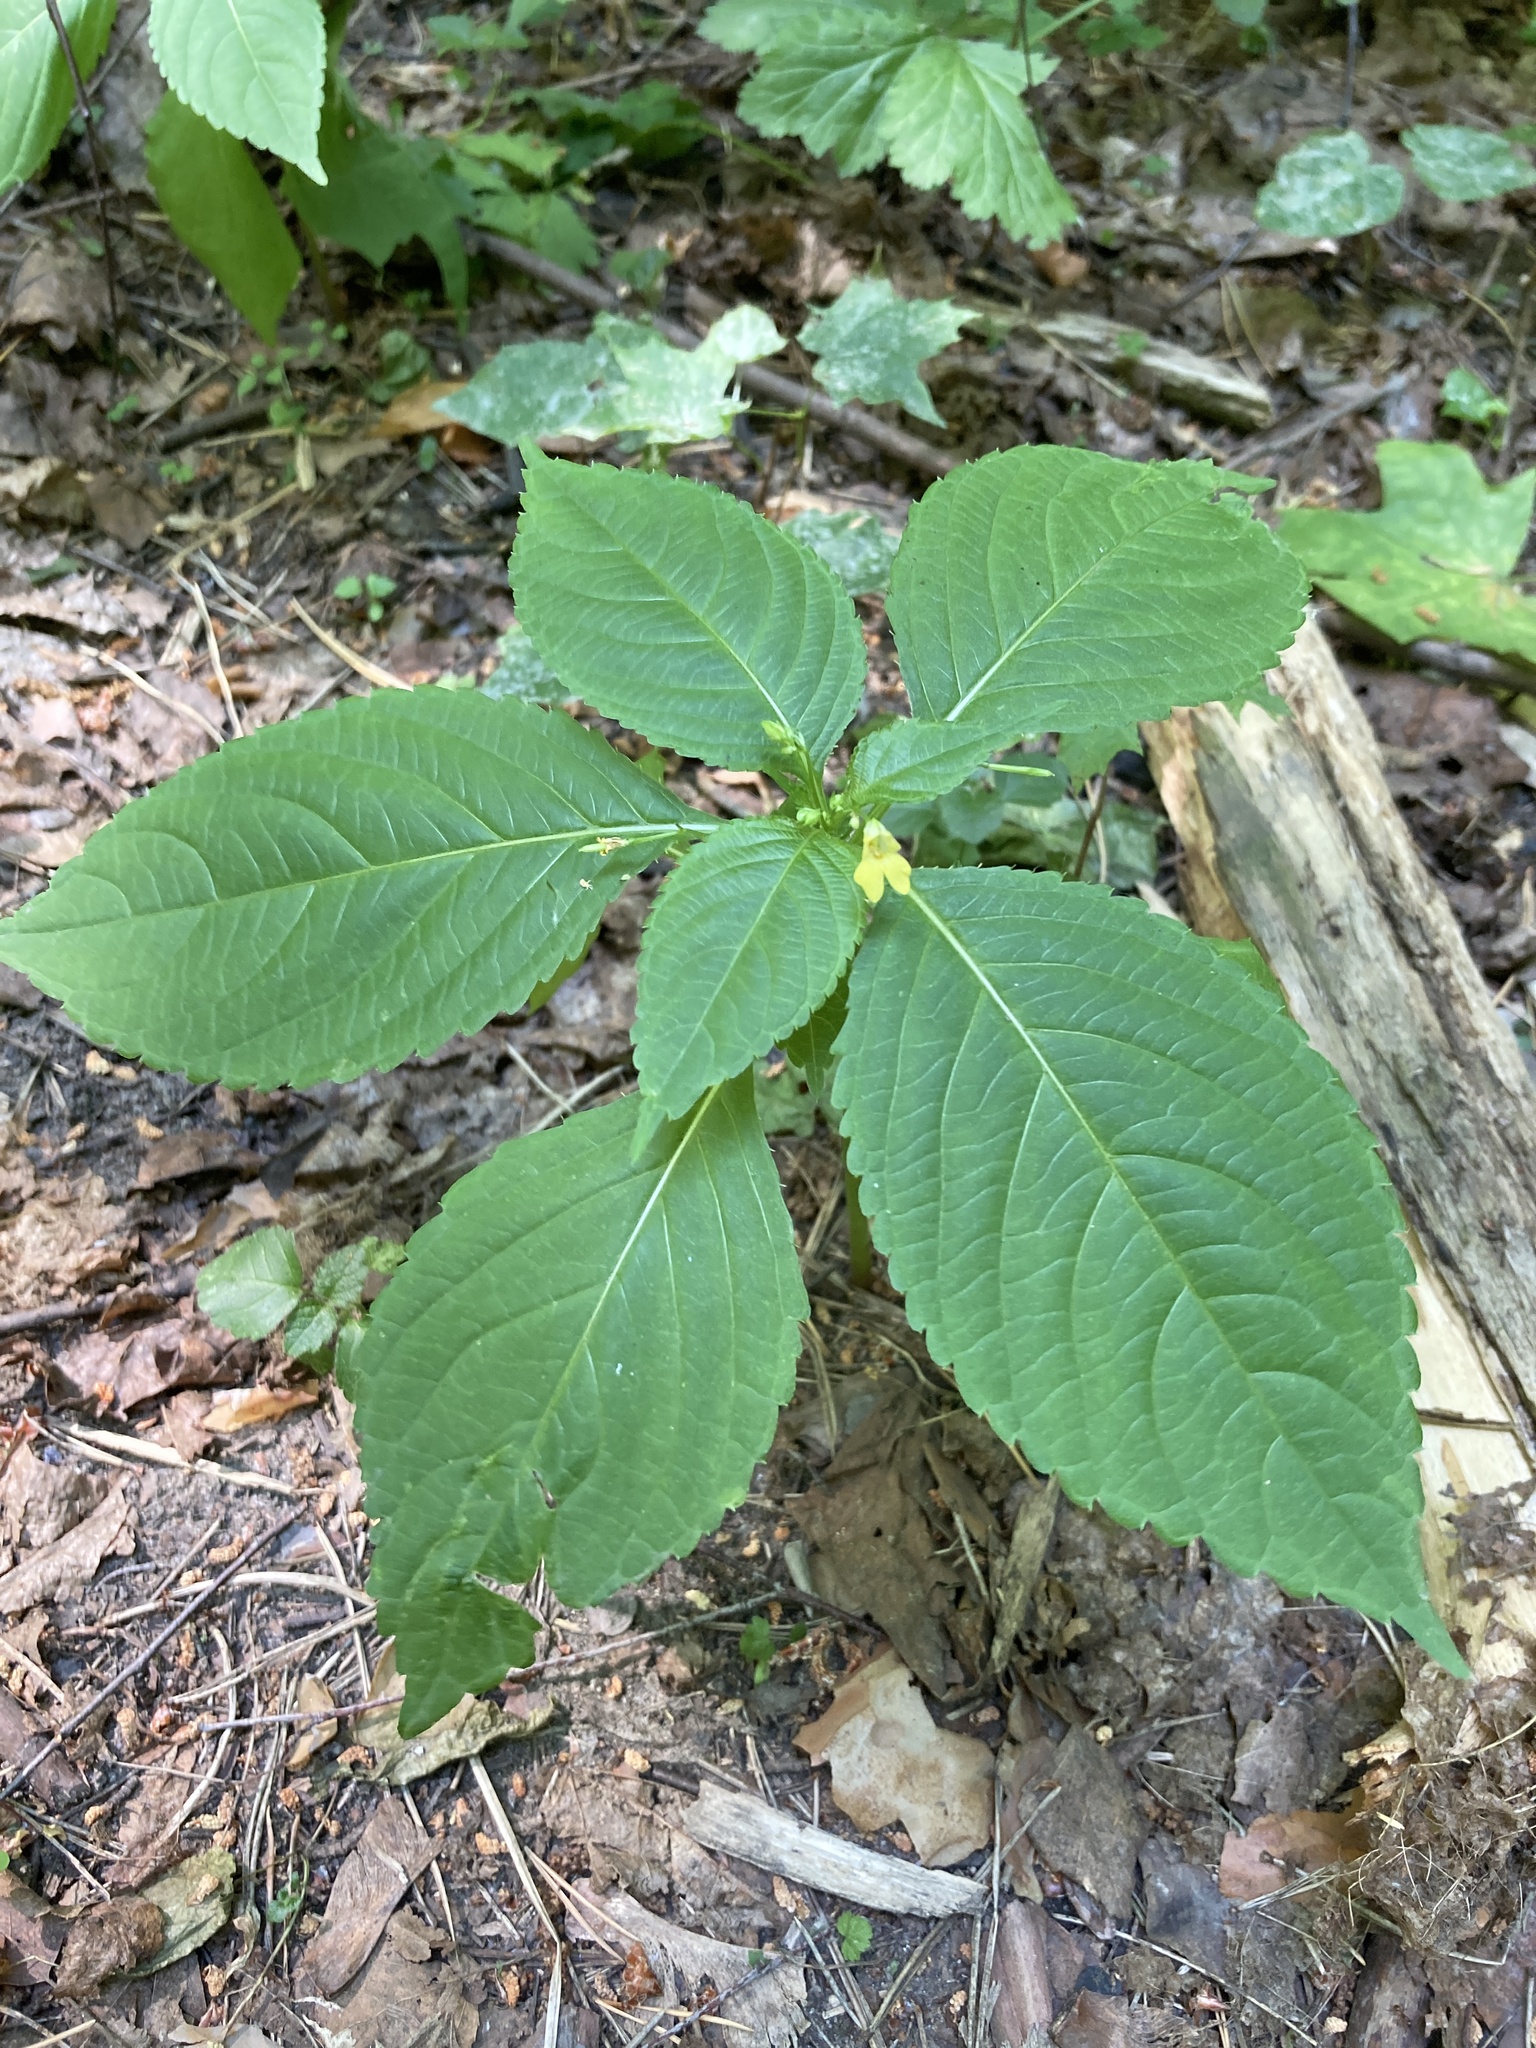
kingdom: Plantae
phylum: Tracheophyta
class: Magnoliopsida
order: Ericales
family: Balsaminaceae
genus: Impatiens
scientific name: Impatiens parviflora
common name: Small balsam
